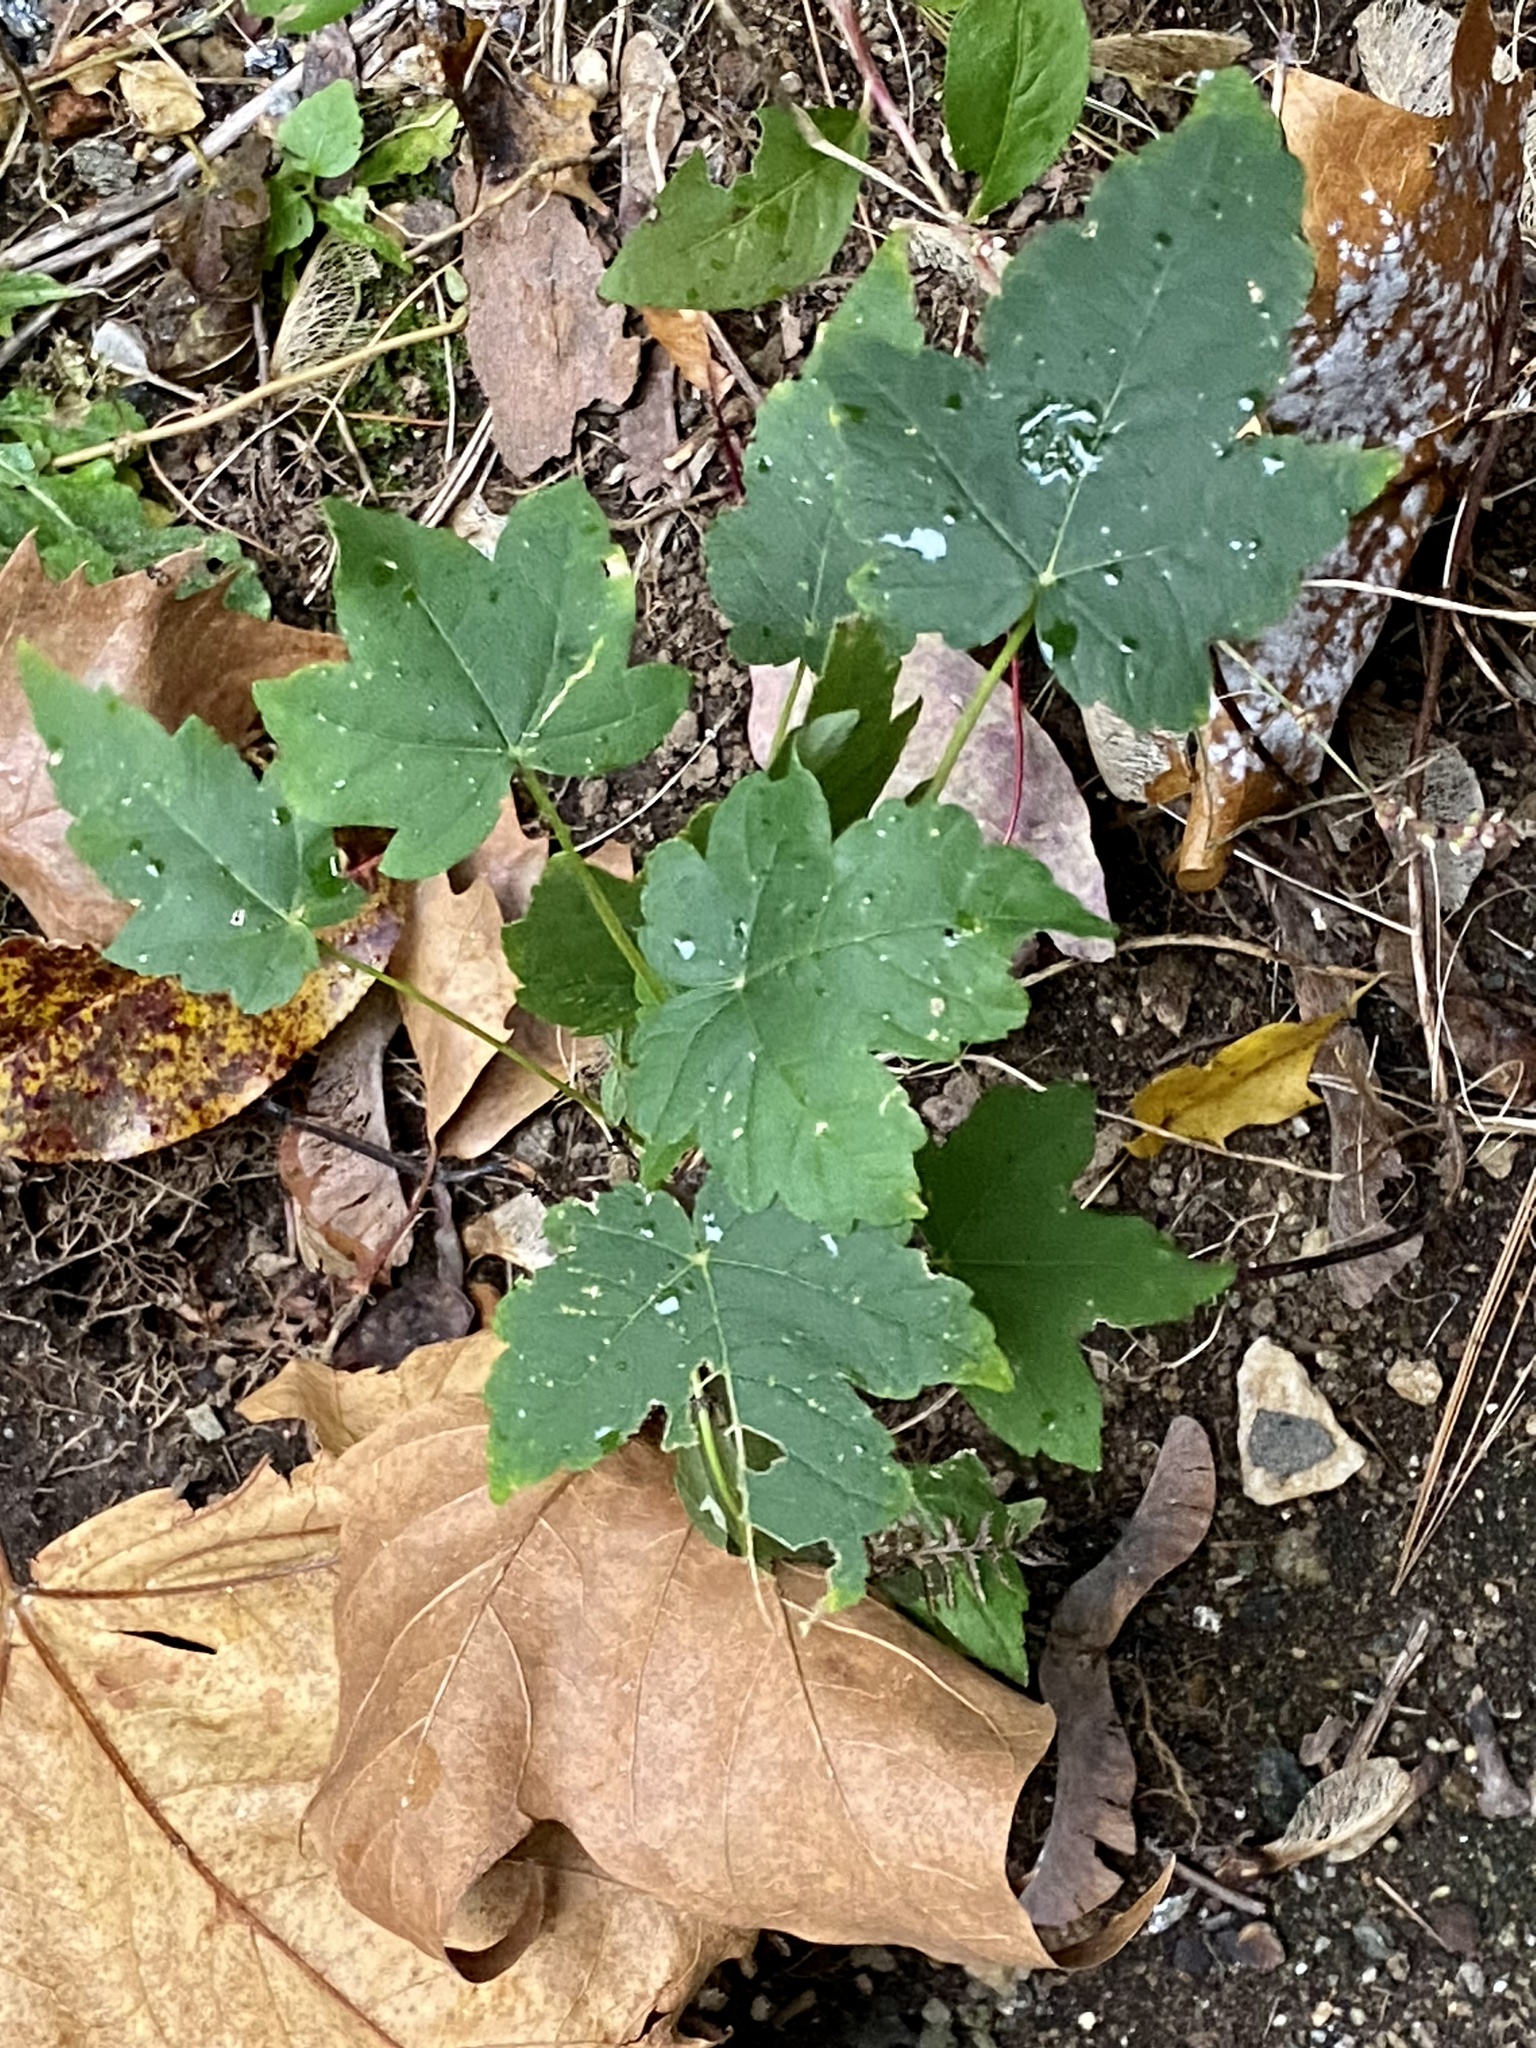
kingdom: Plantae
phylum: Tracheophyta
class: Magnoliopsida
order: Sapindales
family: Sapindaceae
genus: Acer
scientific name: Acer pseudoplatanus
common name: Sycamore
